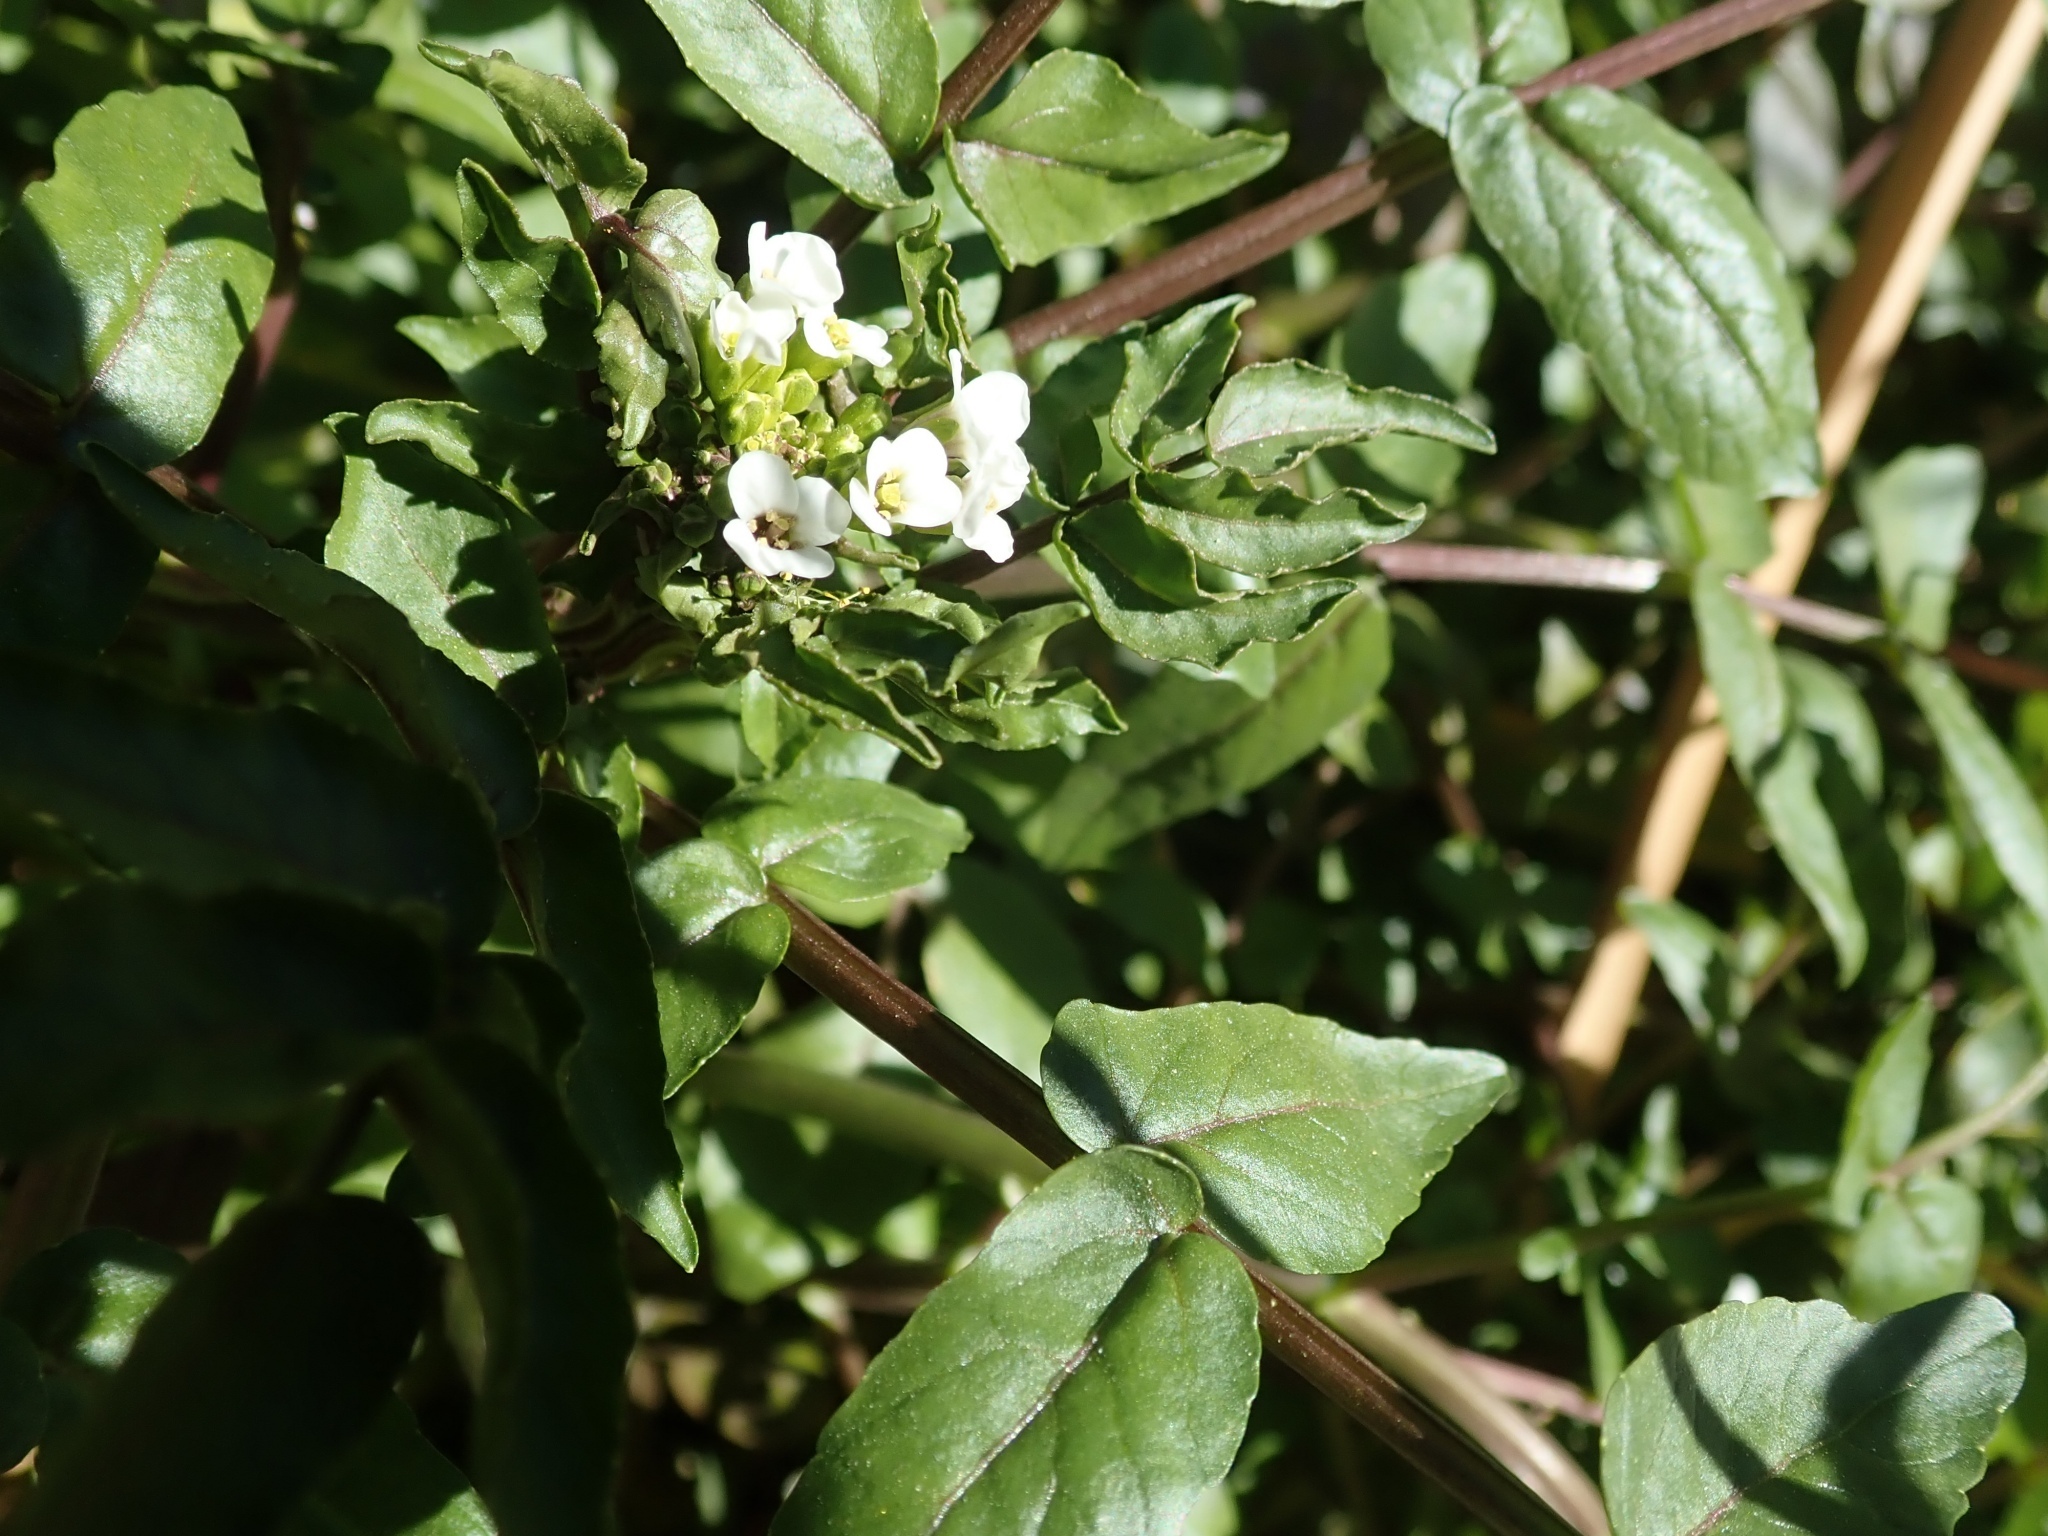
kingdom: Plantae
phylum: Tracheophyta
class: Magnoliopsida
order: Brassicales
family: Brassicaceae
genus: Nasturtium
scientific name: Nasturtium officinale
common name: Watercress
